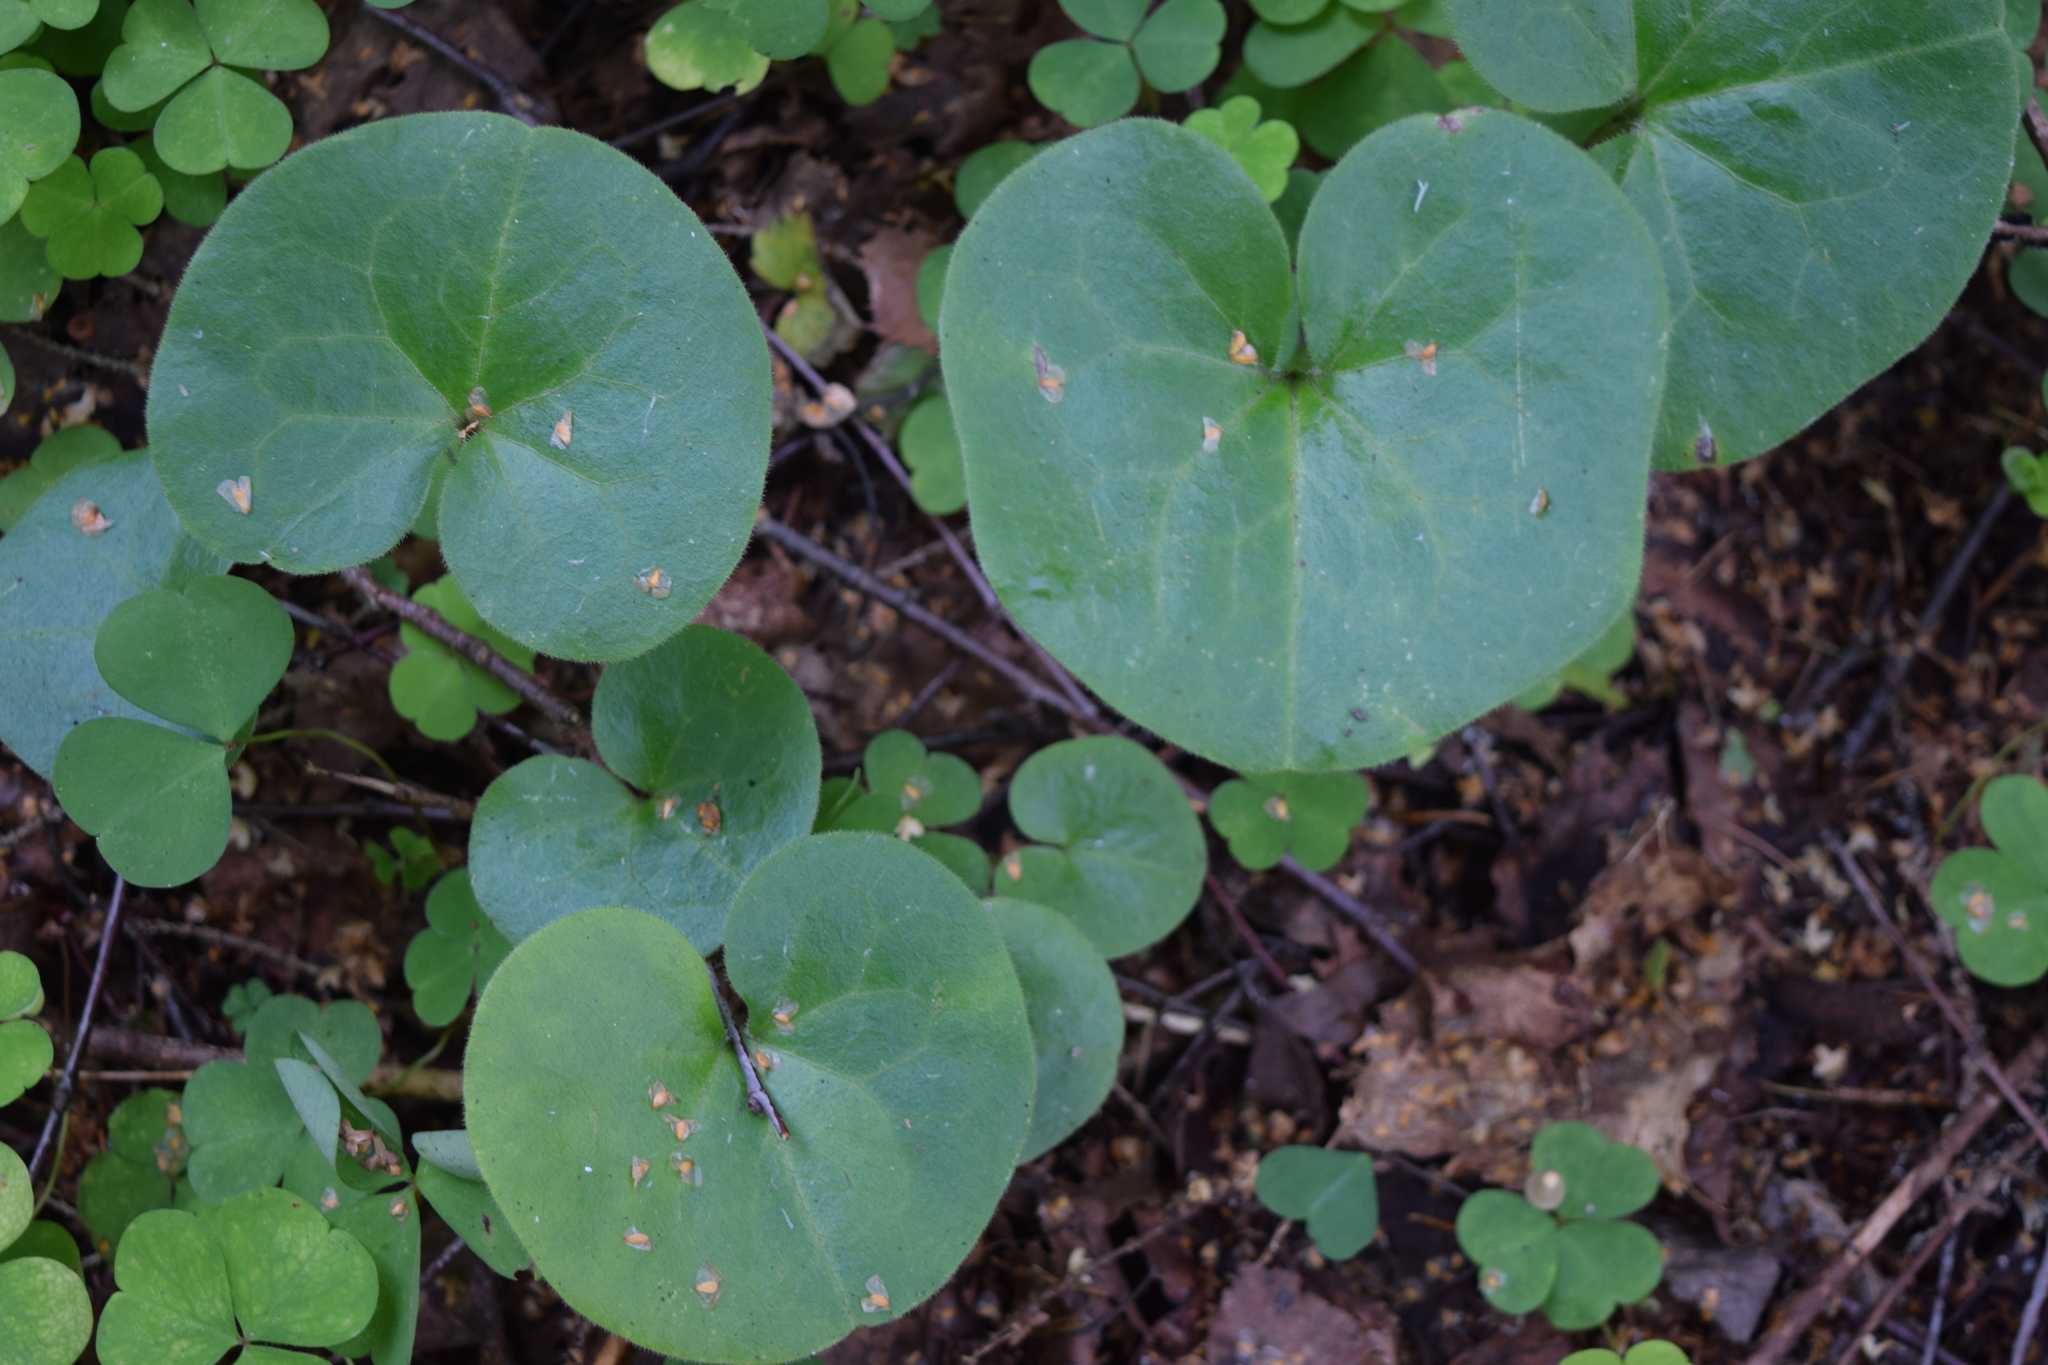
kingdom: Plantae
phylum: Tracheophyta
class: Magnoliopsida
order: Piperales
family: Aristolochiaceae
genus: Asarum
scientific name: Asarum europaeum
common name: Asarabacca
